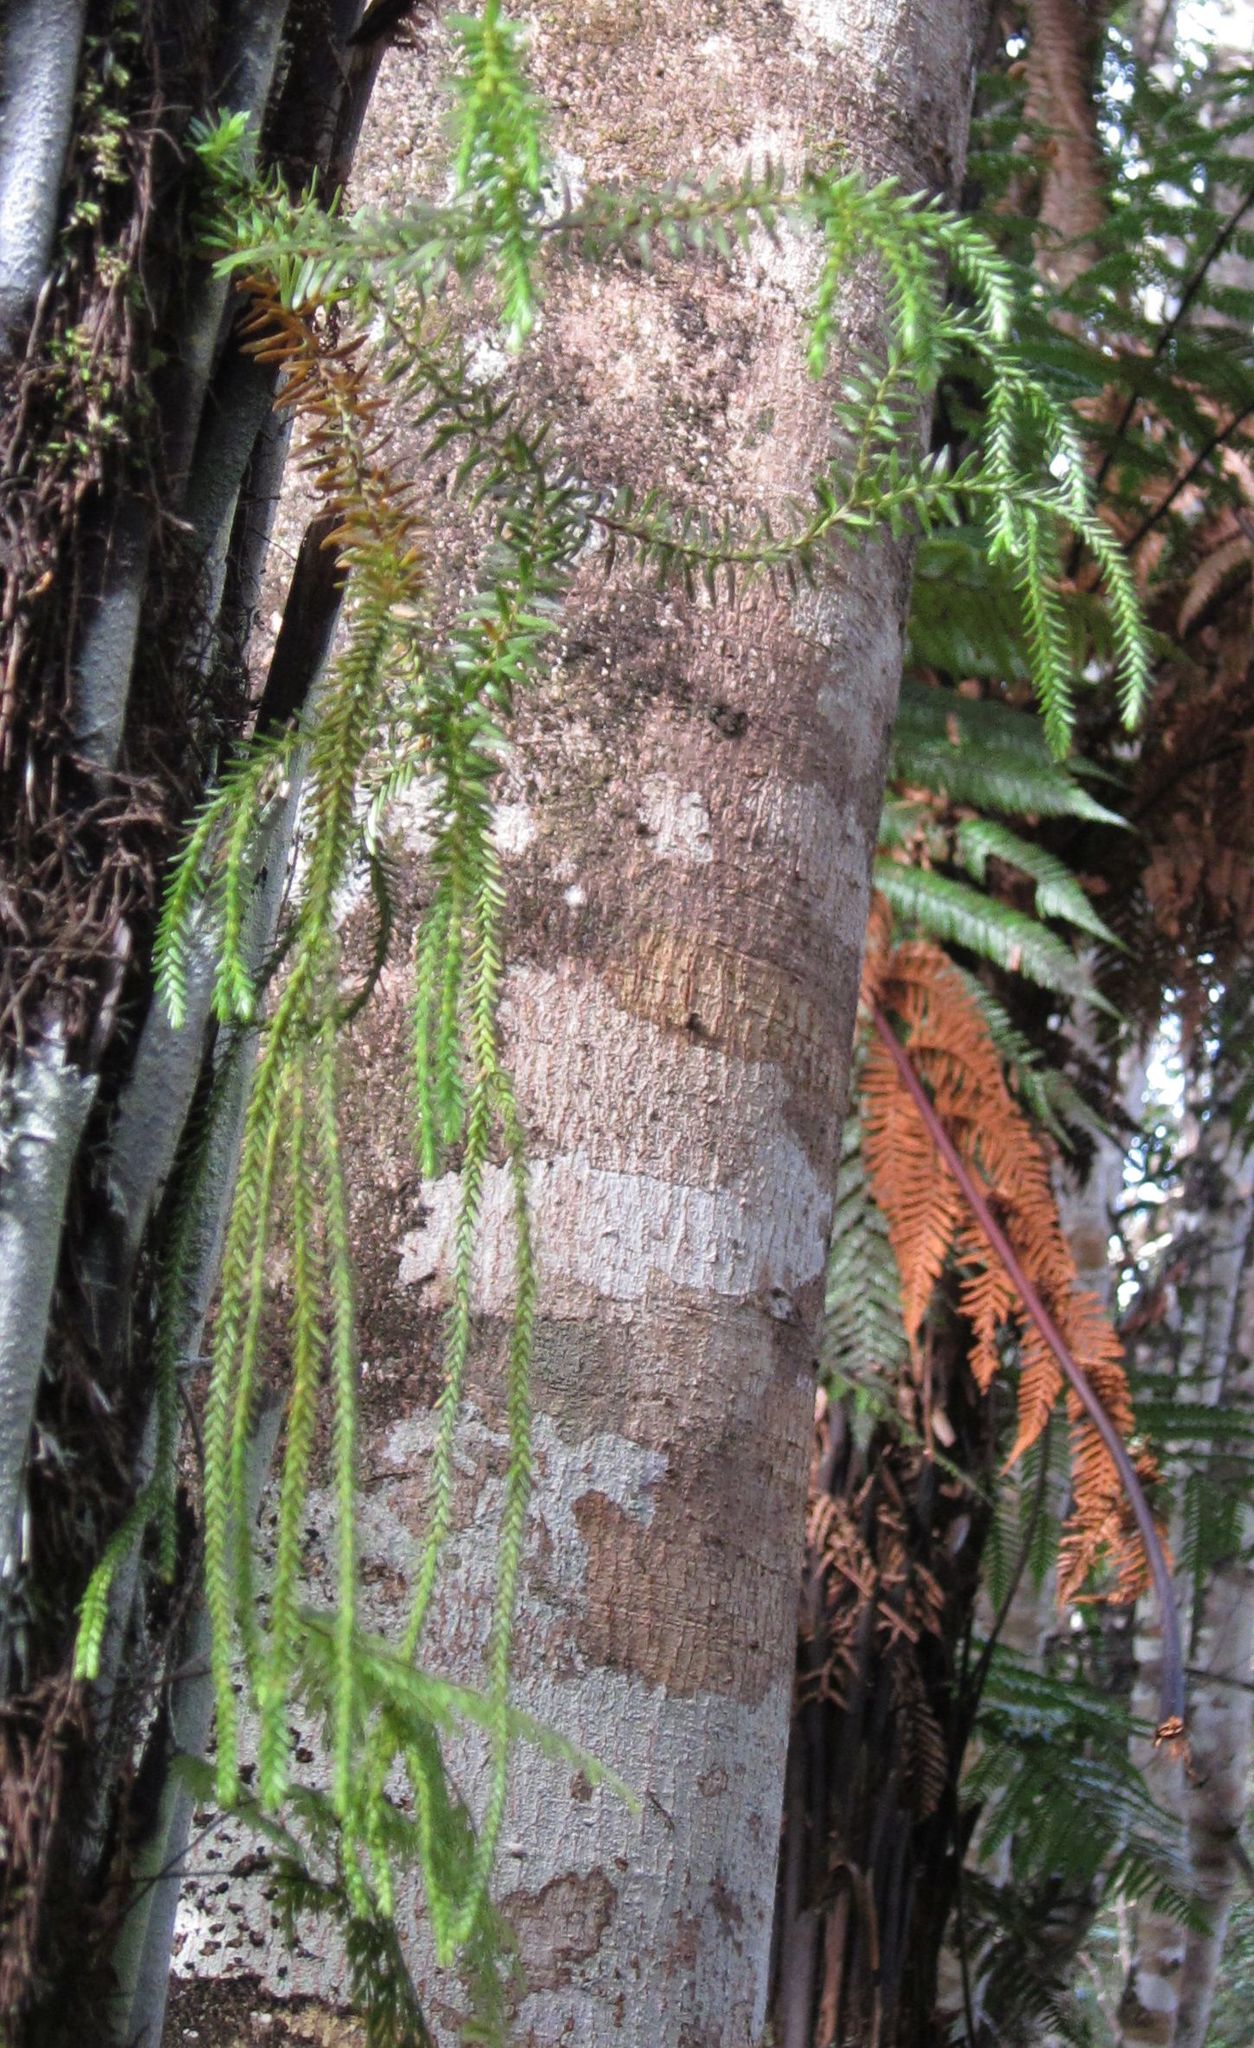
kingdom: Plantae
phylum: Tracheophyta
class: Lycopodiopsida
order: Lycopodiales
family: Lycopodiaceae
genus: Phlegmariurus
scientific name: Phlegmariurus varius
